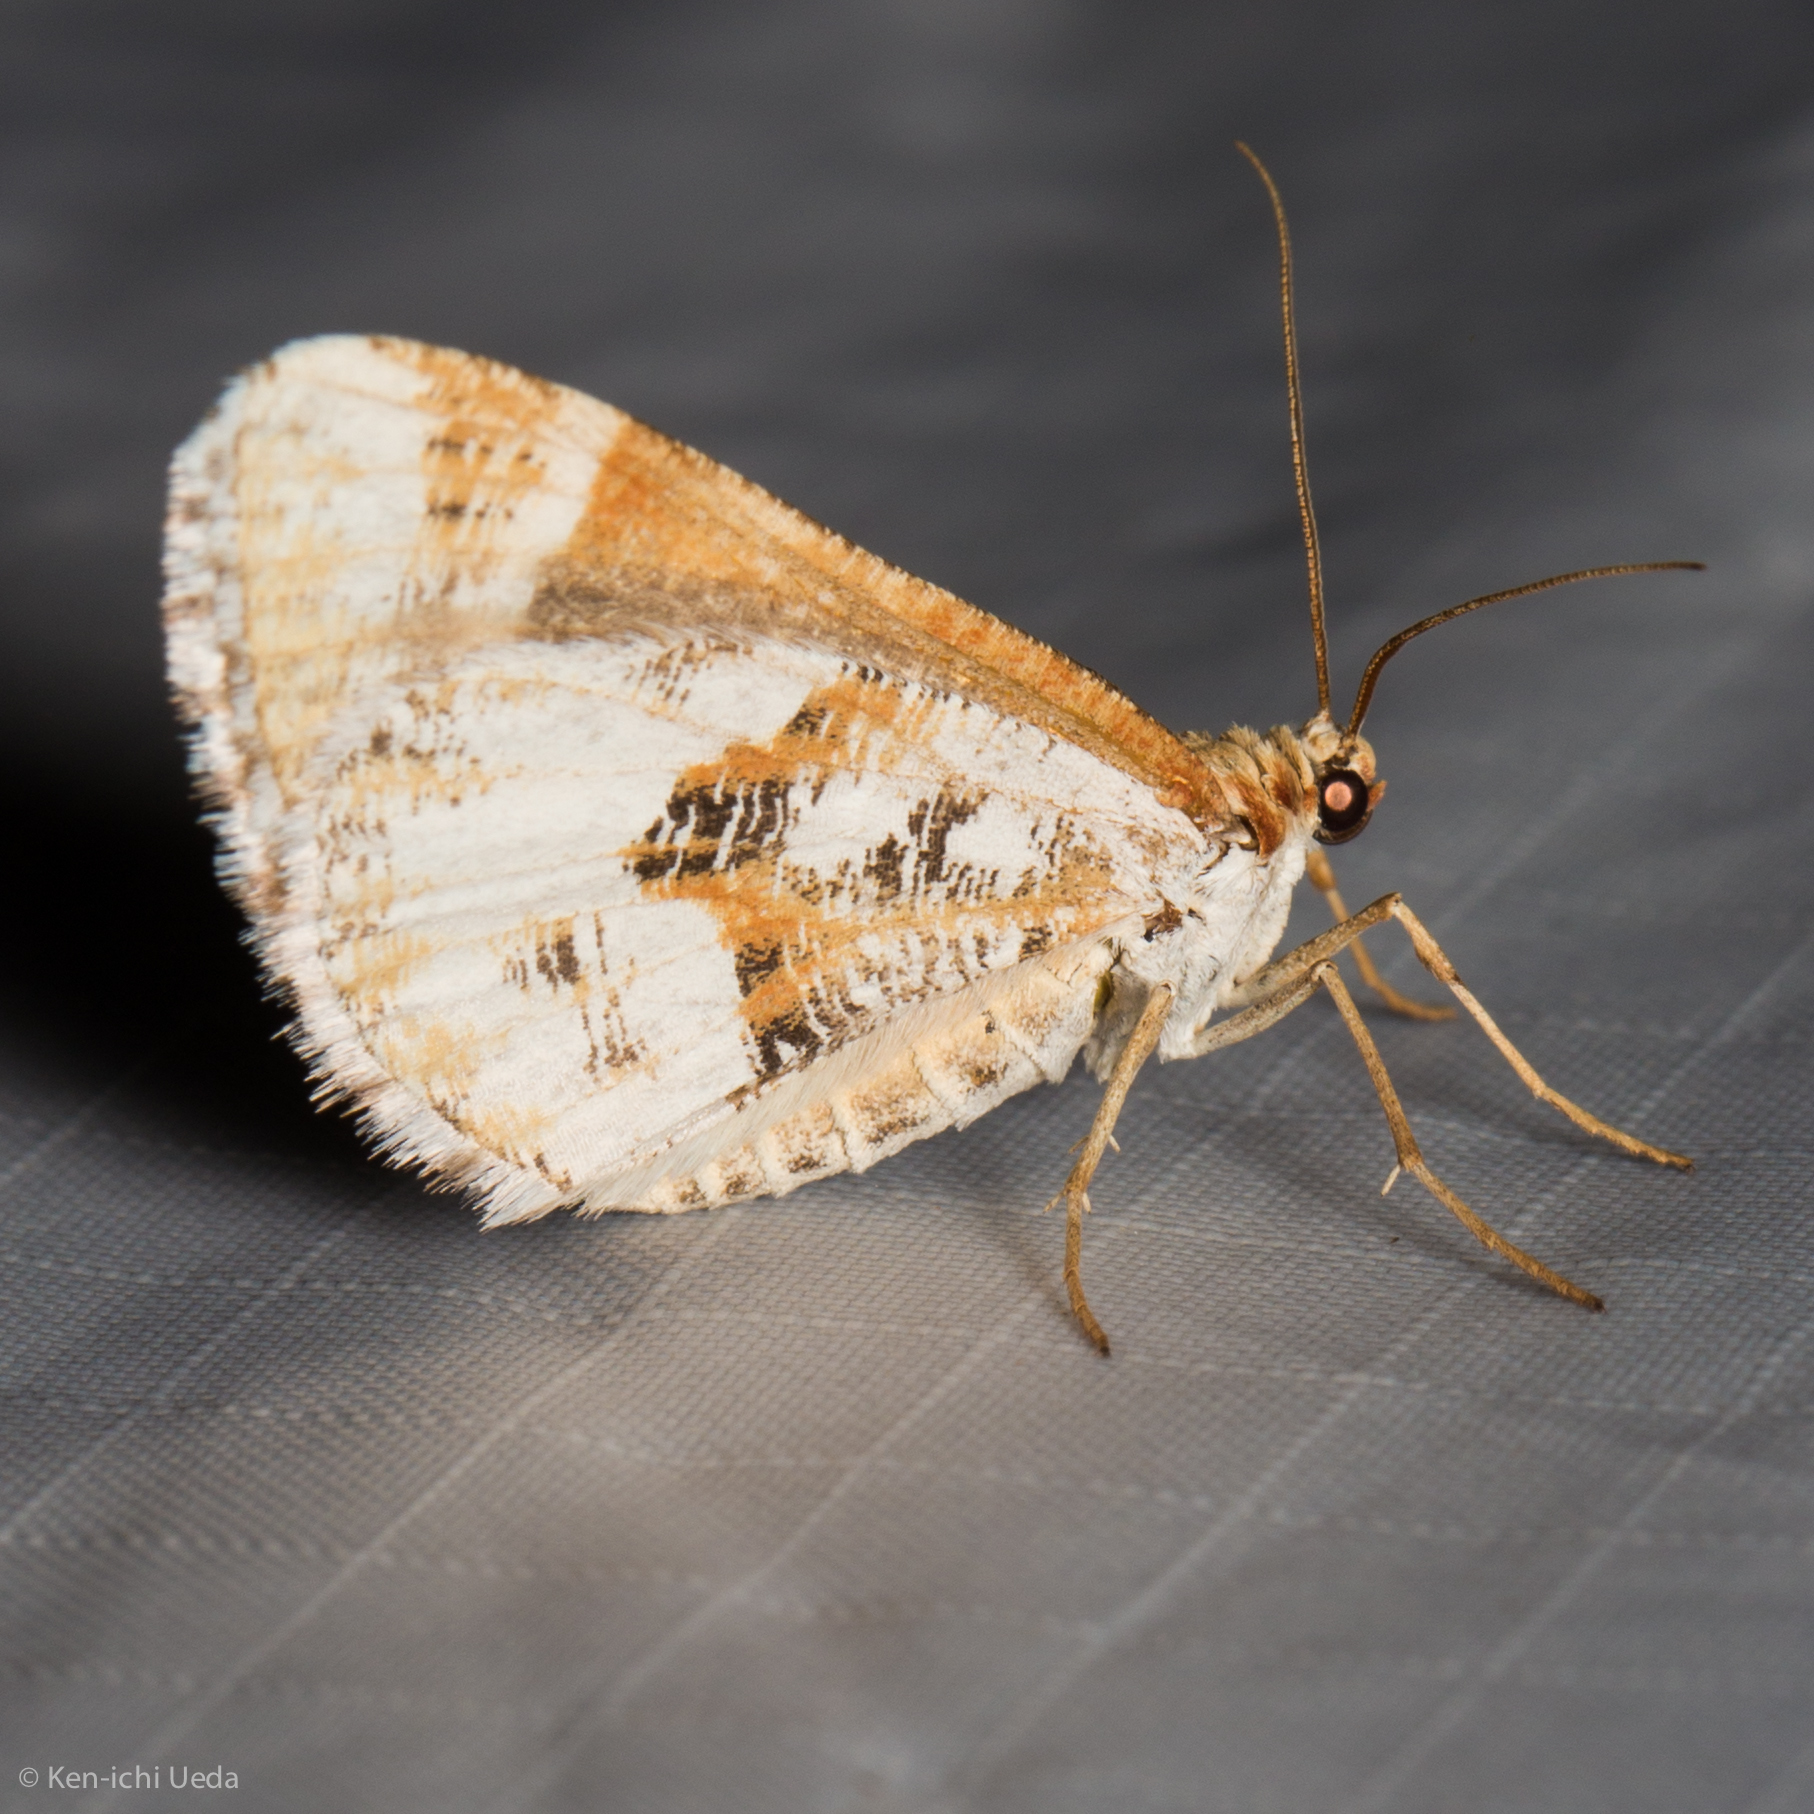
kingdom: Animalia
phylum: Arthropoda
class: Insecta
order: Lepidoptera
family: Geometridae
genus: Stamnodes
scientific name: Stamnodes marmorata
